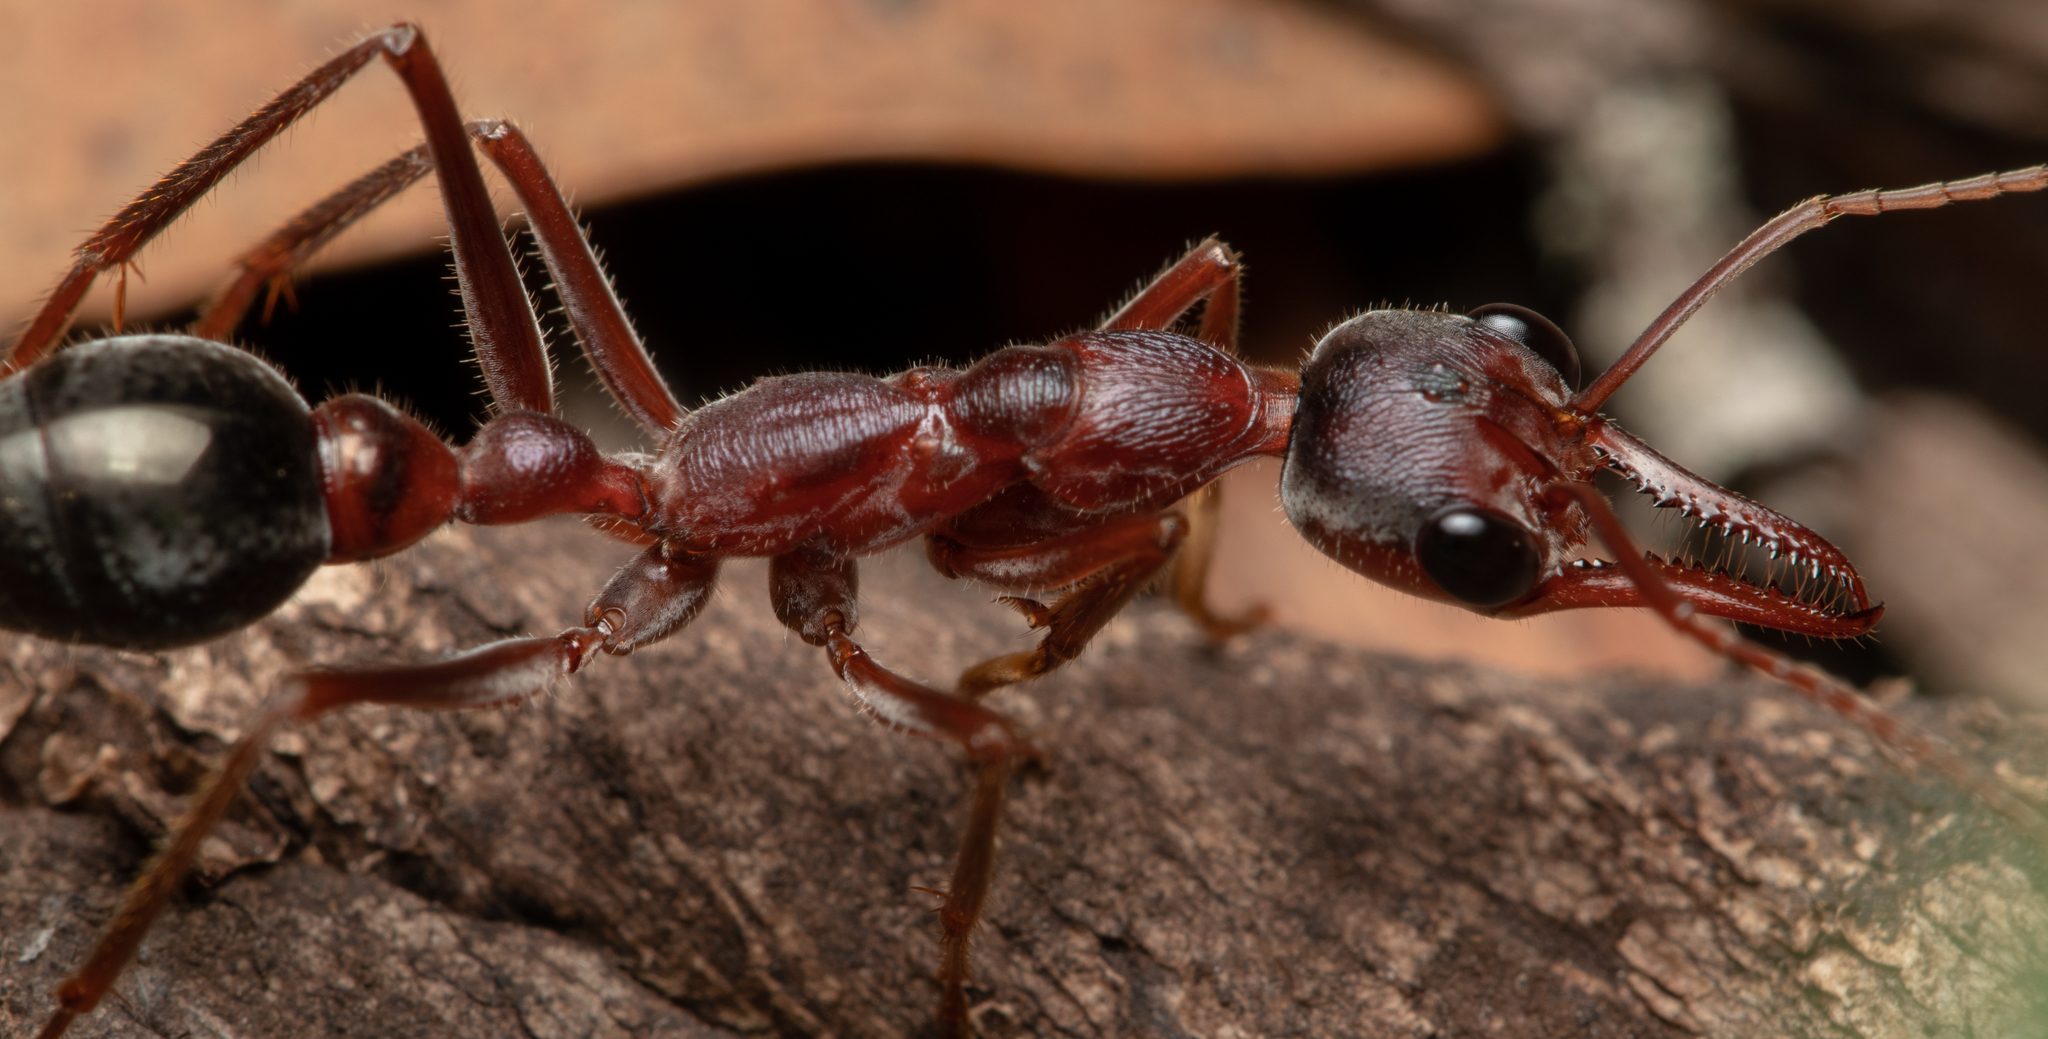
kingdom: Animalia
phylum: Arthropoda
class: Insecta
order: Hymenoptera
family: Formicidae
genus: Myrmecia
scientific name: Myrmecia brevinoda
